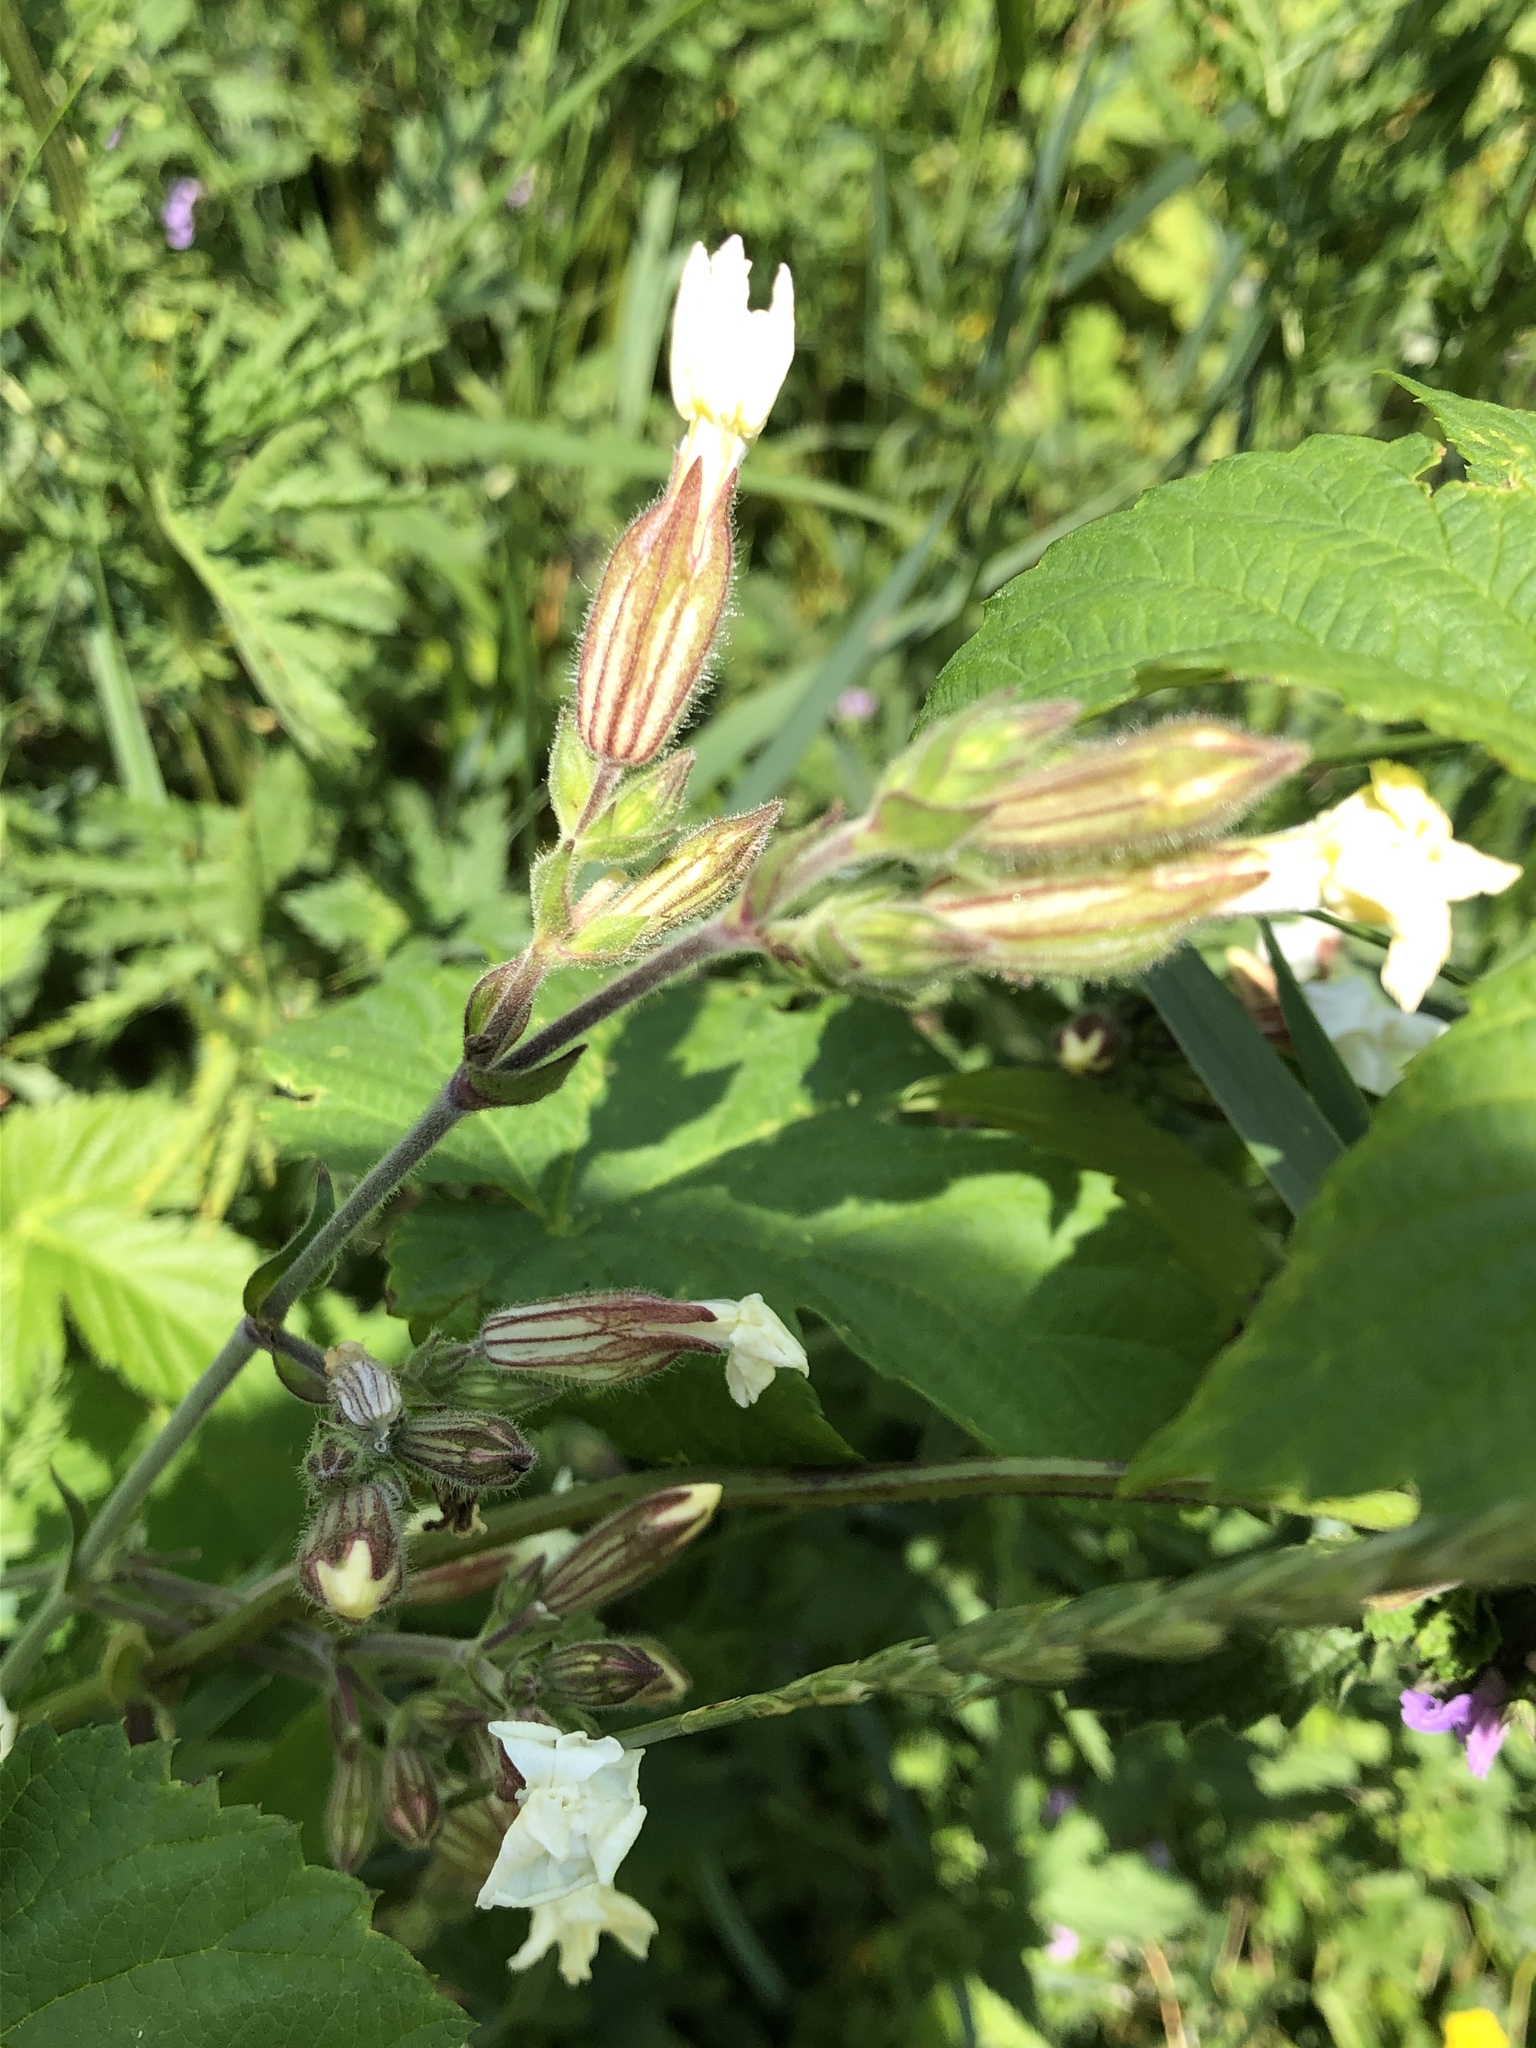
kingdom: Plantae
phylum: Tracheophyta
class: Magnoliopsida
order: Caryophyllales
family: Caryophyllaceae
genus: Silene
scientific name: Silene latifolia
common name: White campion
